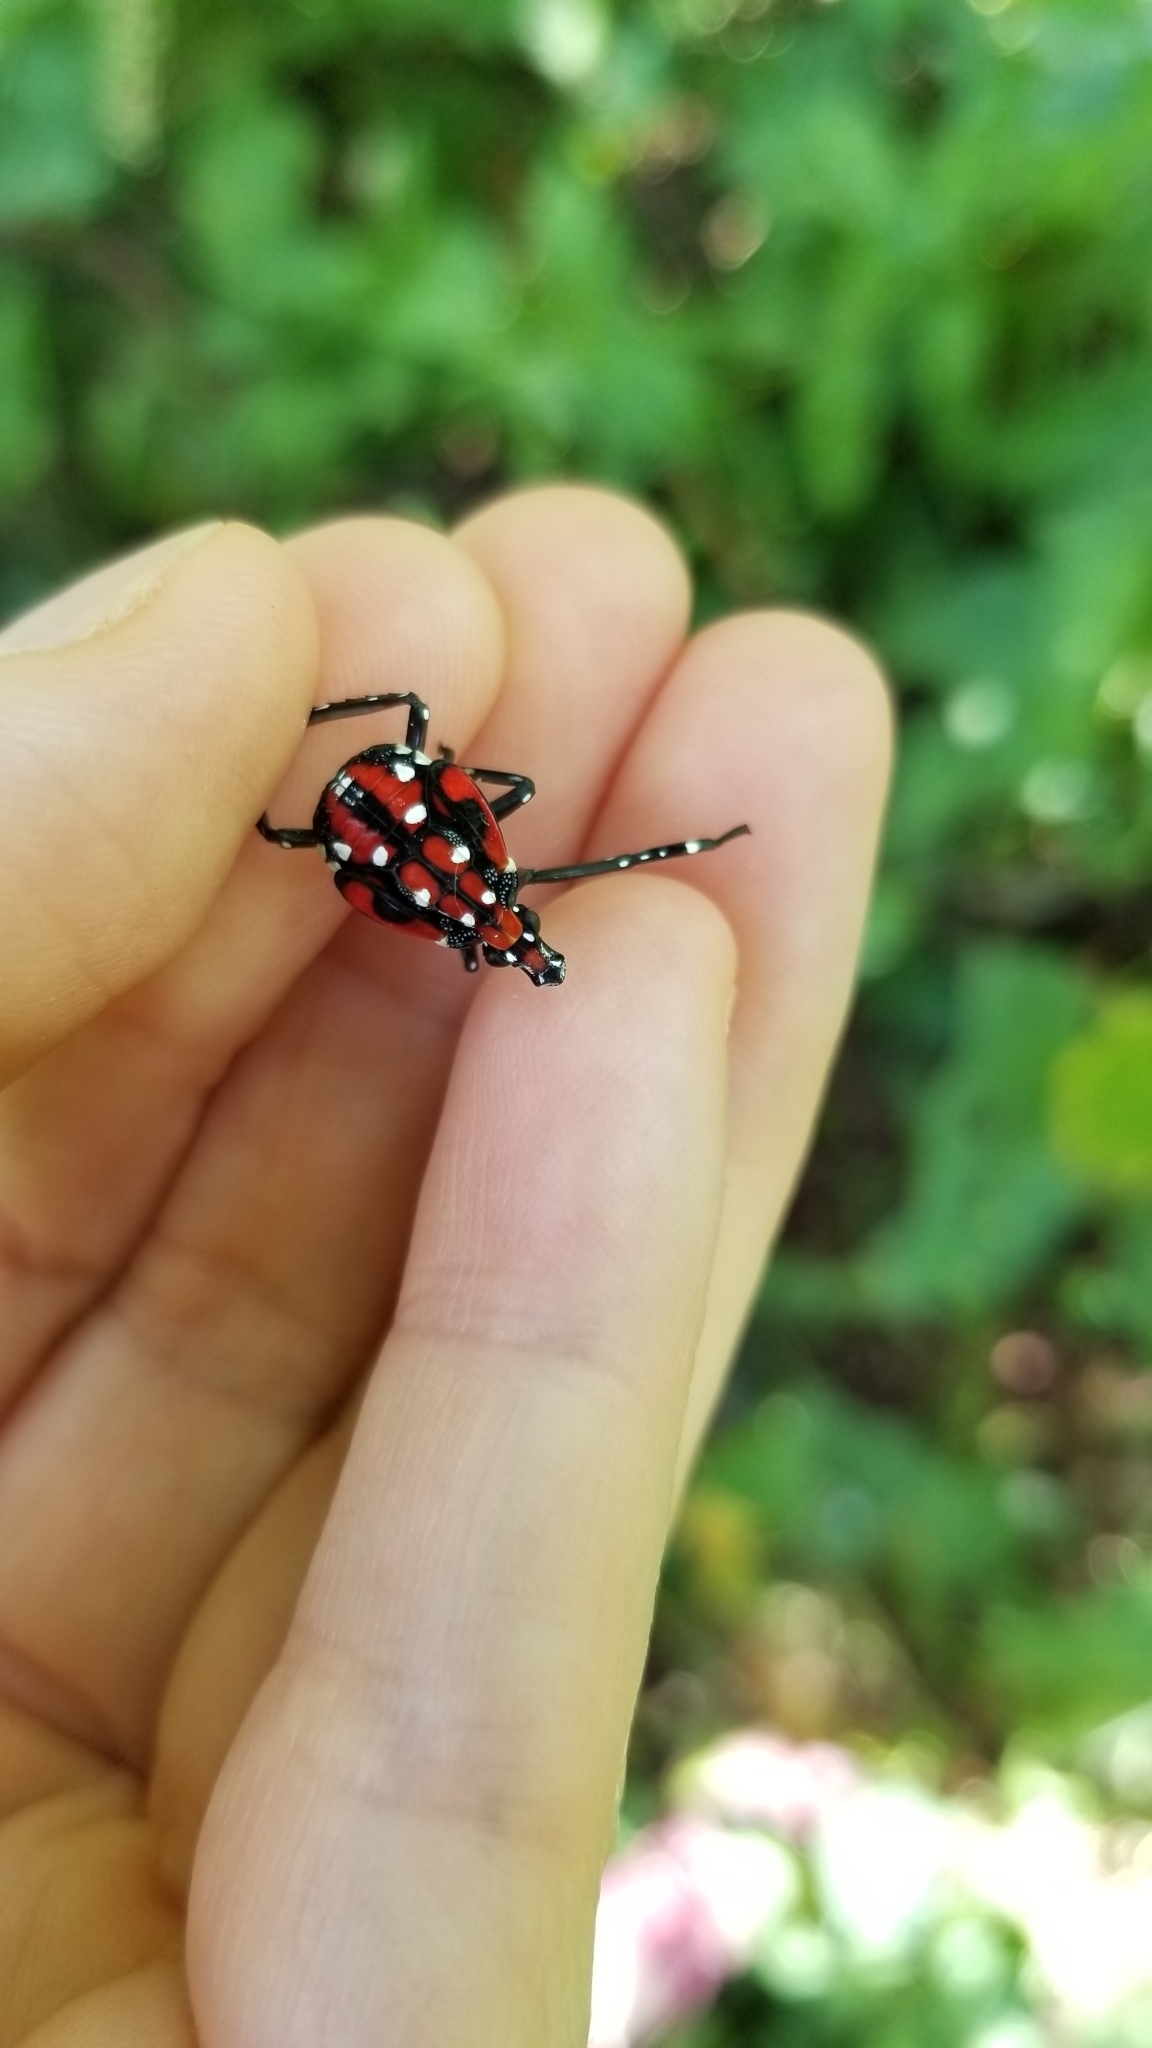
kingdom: Animalia
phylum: Arthropoda
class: Insecta
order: Hemiptera
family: Fulgoridae
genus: Lycorma
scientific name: Lycorma delicatula
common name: Spotted lanternfly
